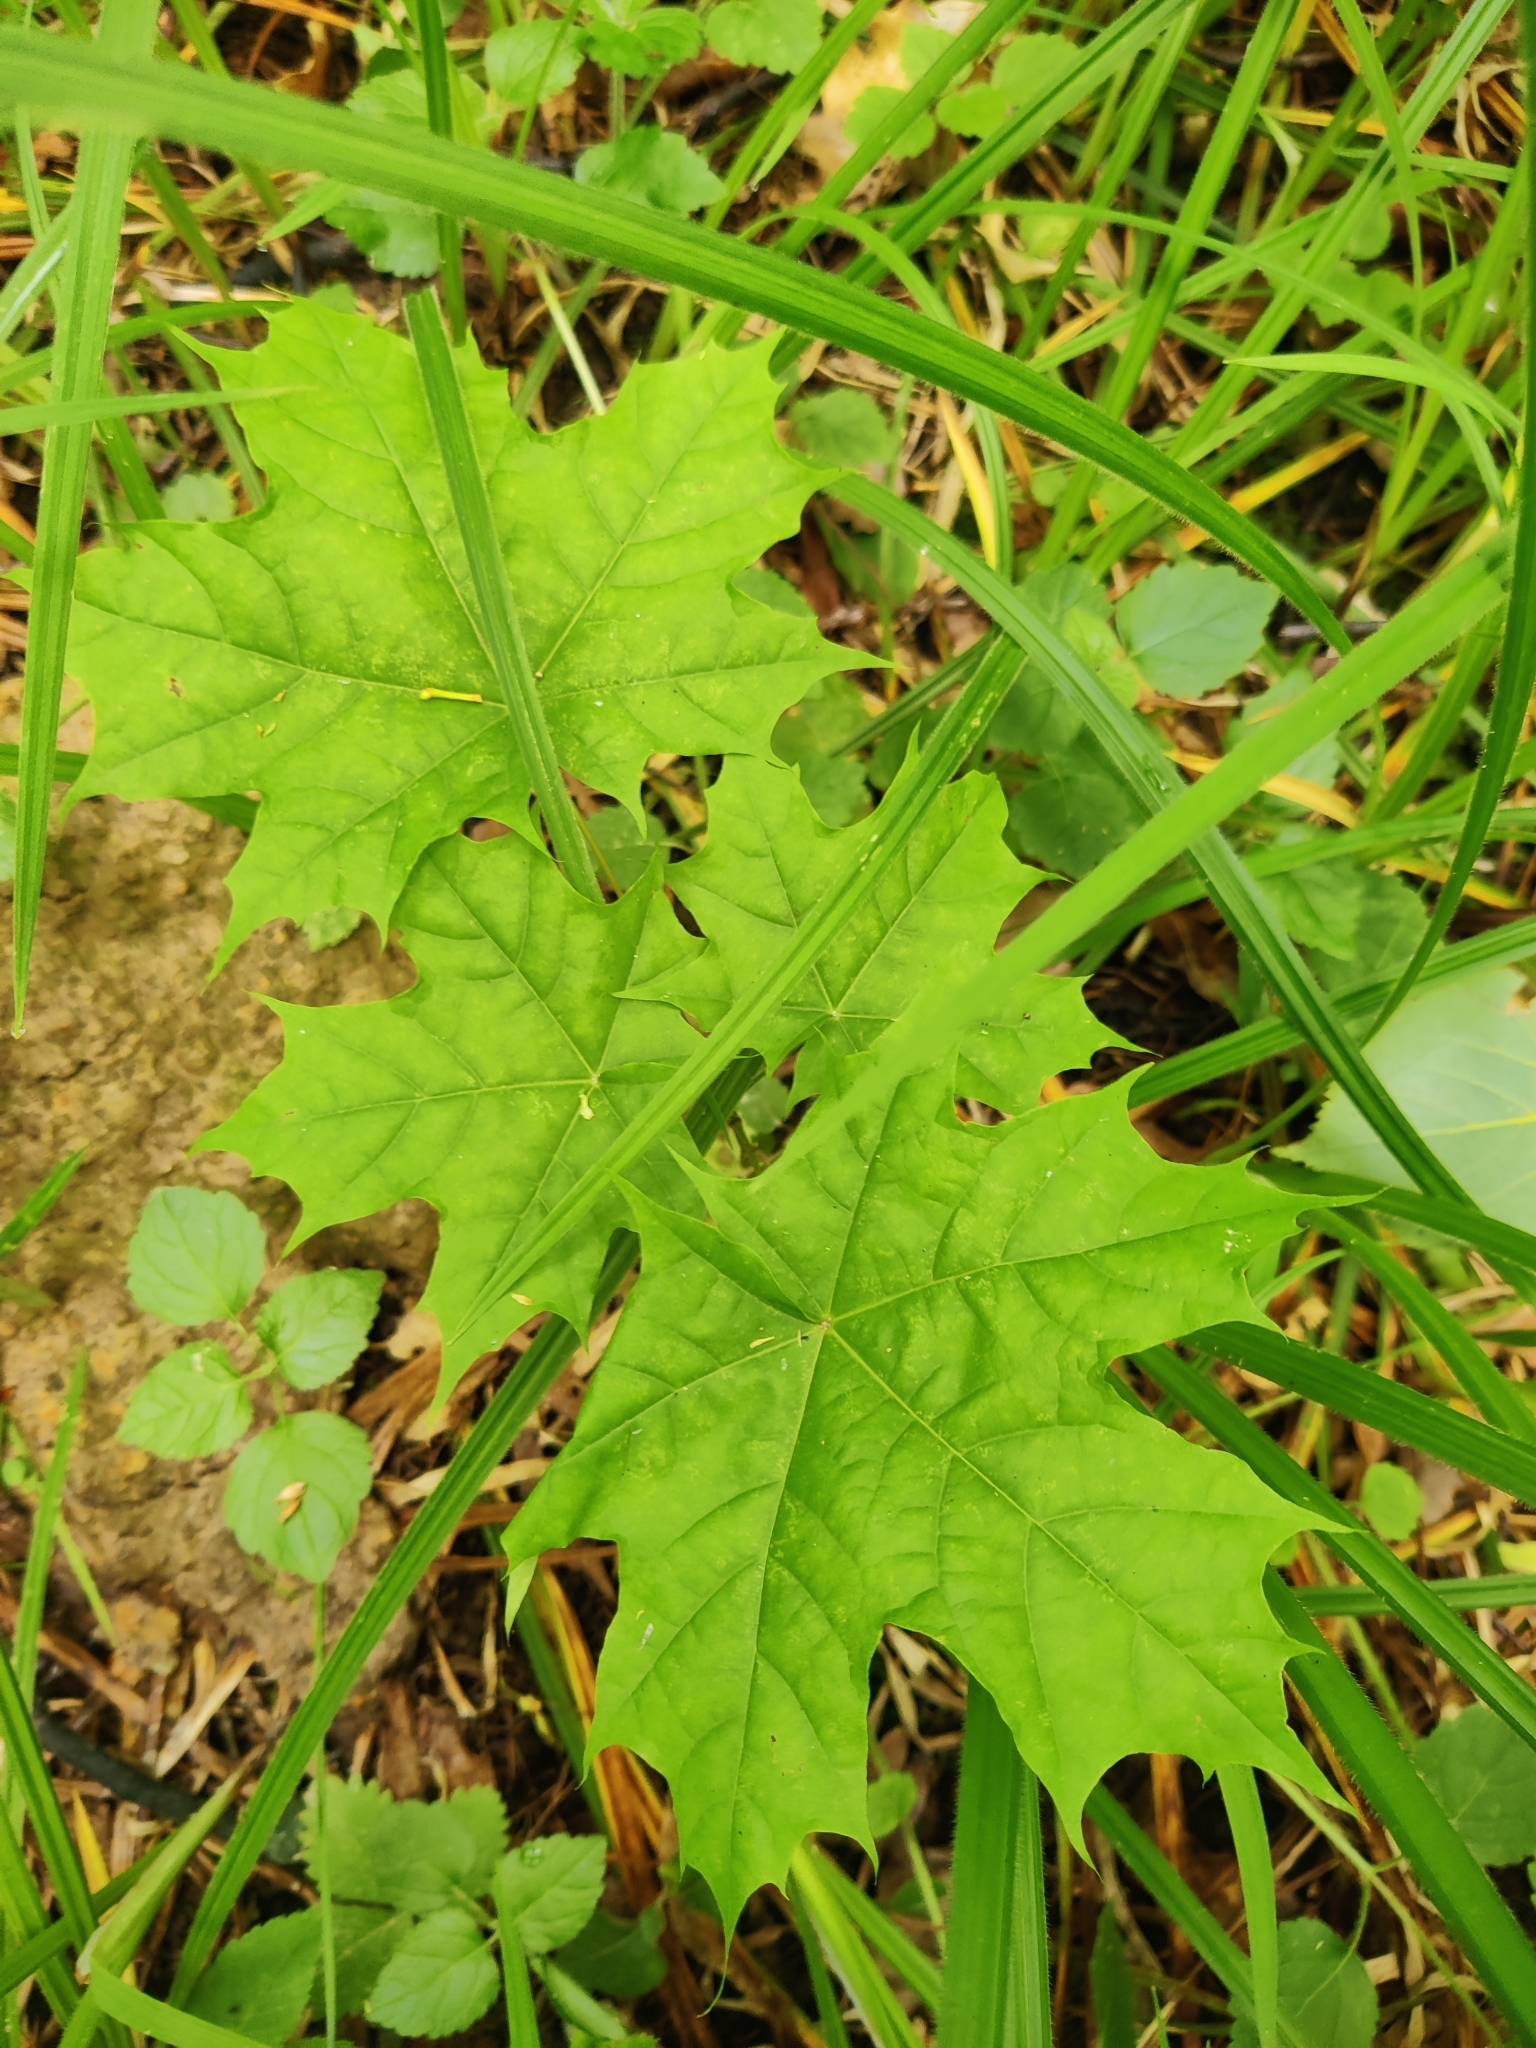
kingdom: Plantae
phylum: Tracheophyta
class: Magnoliopsida
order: Sapindales
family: Sapindaceae
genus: Acer
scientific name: Acer platanoides
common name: Norway maple
